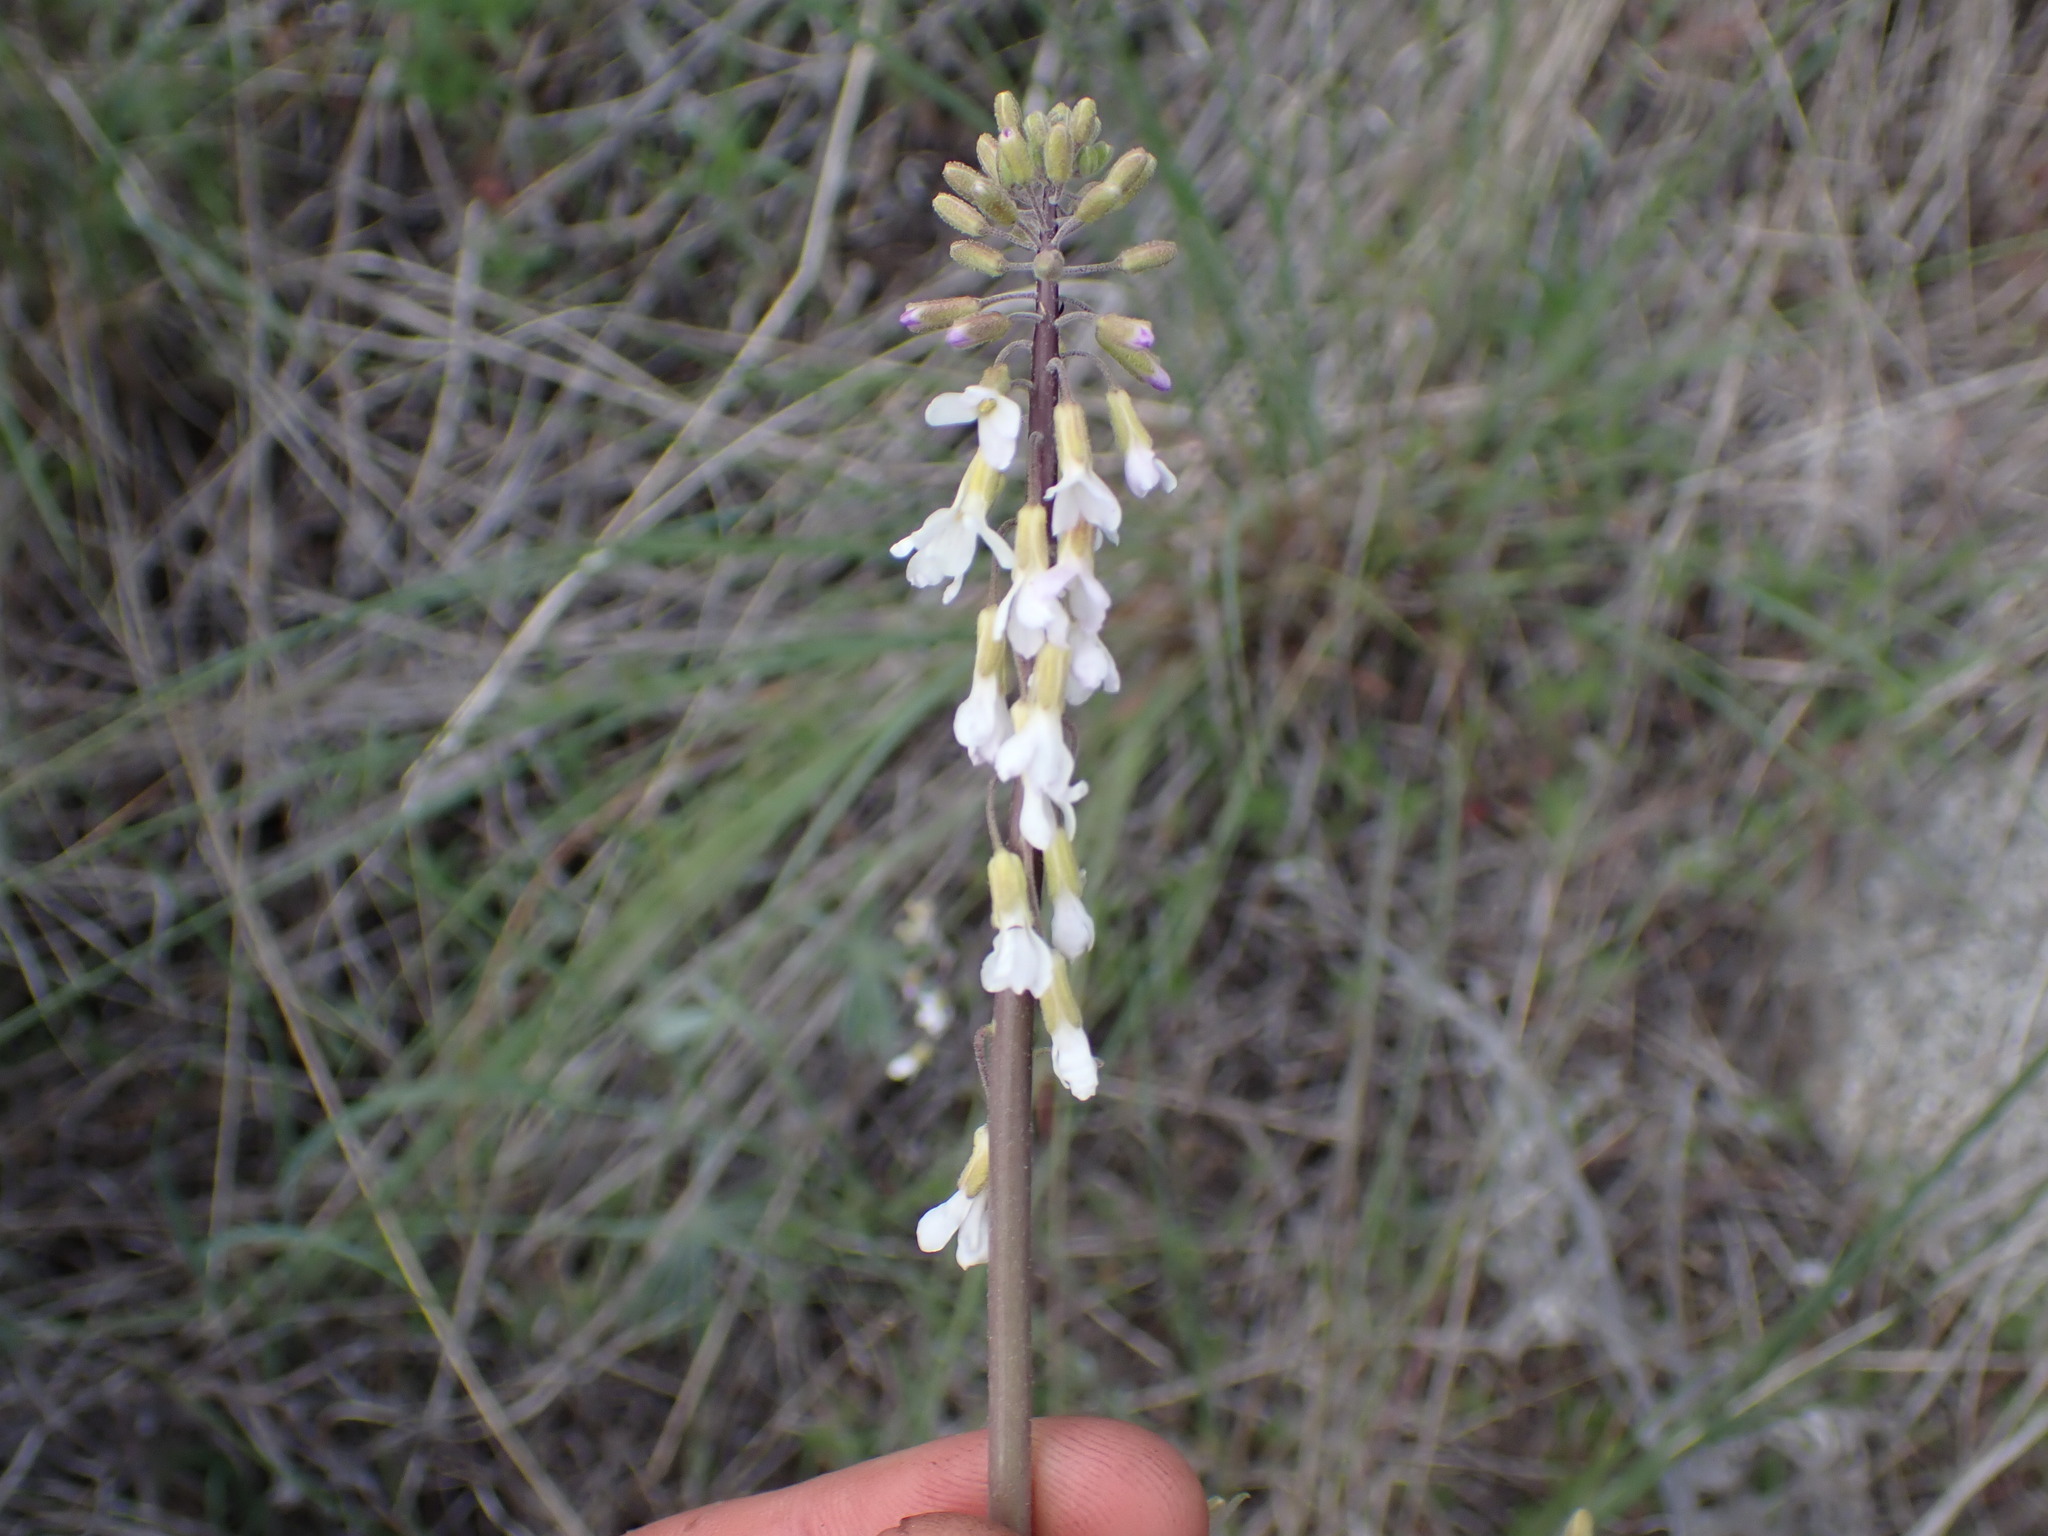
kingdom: Plantae
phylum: Tracheophyta
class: Magnoliopsida
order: Brassicales
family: Brassicaceae
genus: Boechera
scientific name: Boechera retrofracta
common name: Dangling suncress
